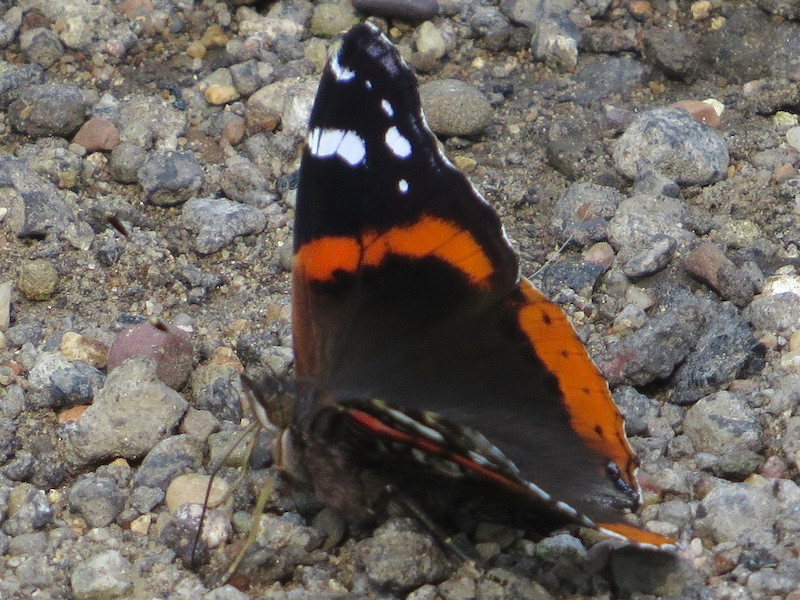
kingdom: Animalia
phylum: Arthropoda
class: Insecta
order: Lepidoptera
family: Nymphalidae
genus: Vanessa
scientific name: Vanessa atalanta
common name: Red admiral
